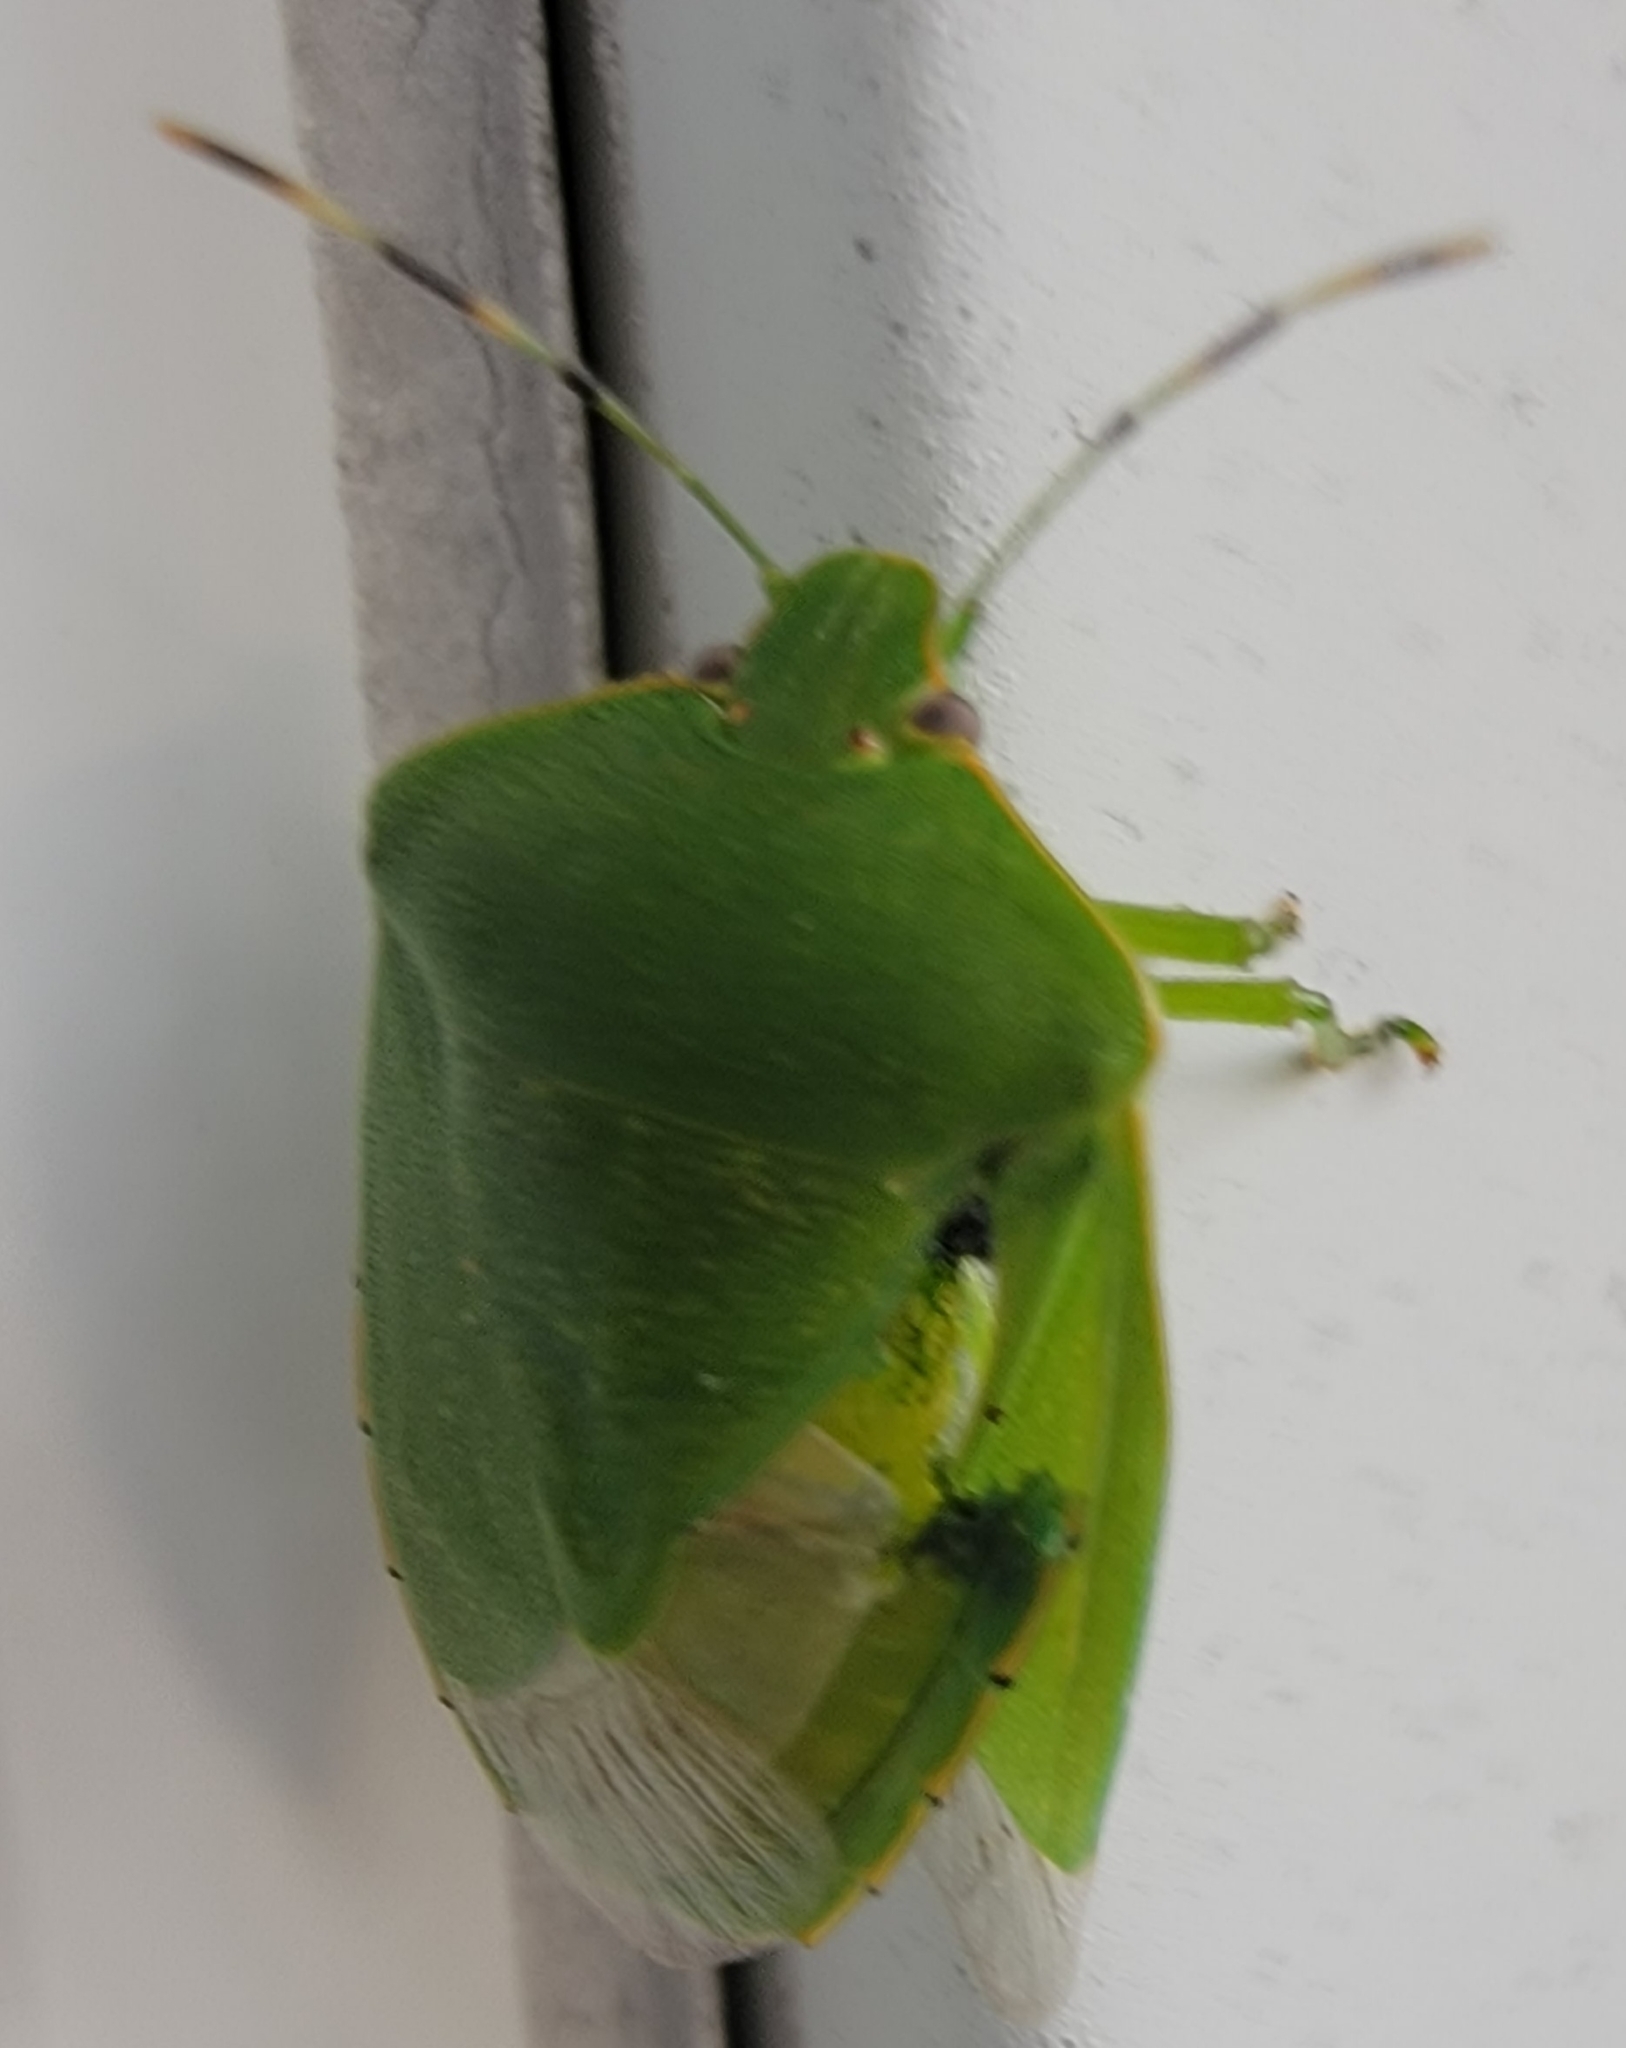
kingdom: Animalia
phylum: Arthropoda
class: Insecta
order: Hemiptera
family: Pentatomidae
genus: Chinavia
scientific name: Chinavia hilaris
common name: Green stink bug
